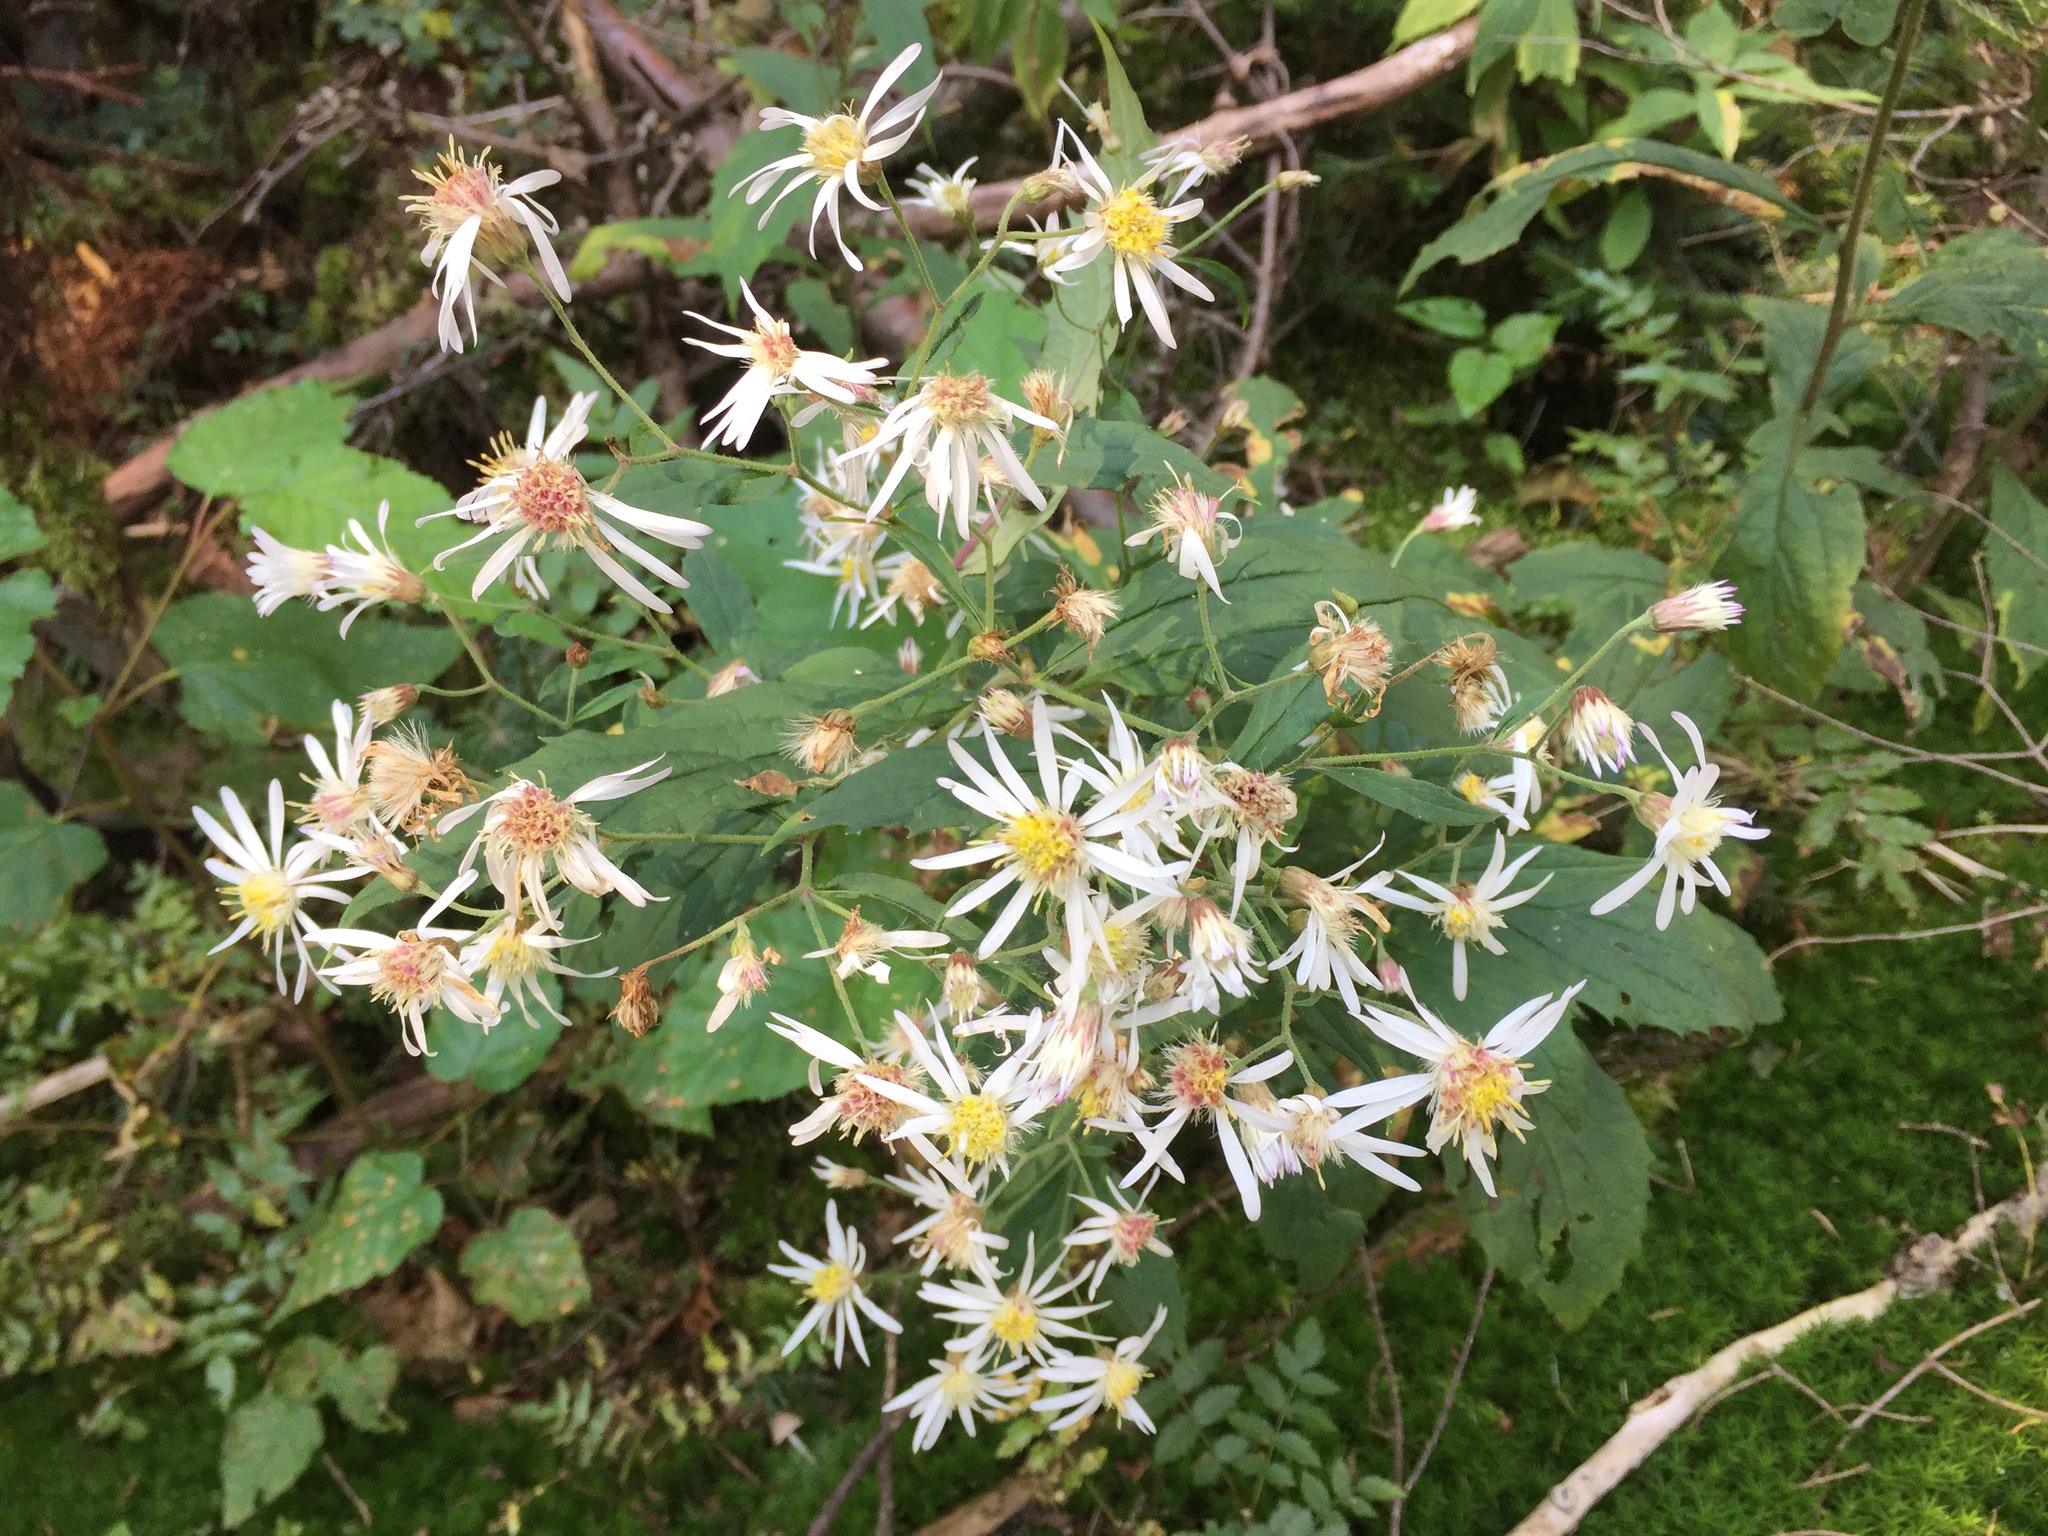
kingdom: Plantae
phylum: Tracheophyta
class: Magnoliopsida
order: Asterales
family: Asteraceae
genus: Oclemena
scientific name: Oclemena acuminata
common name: Mountain aster
